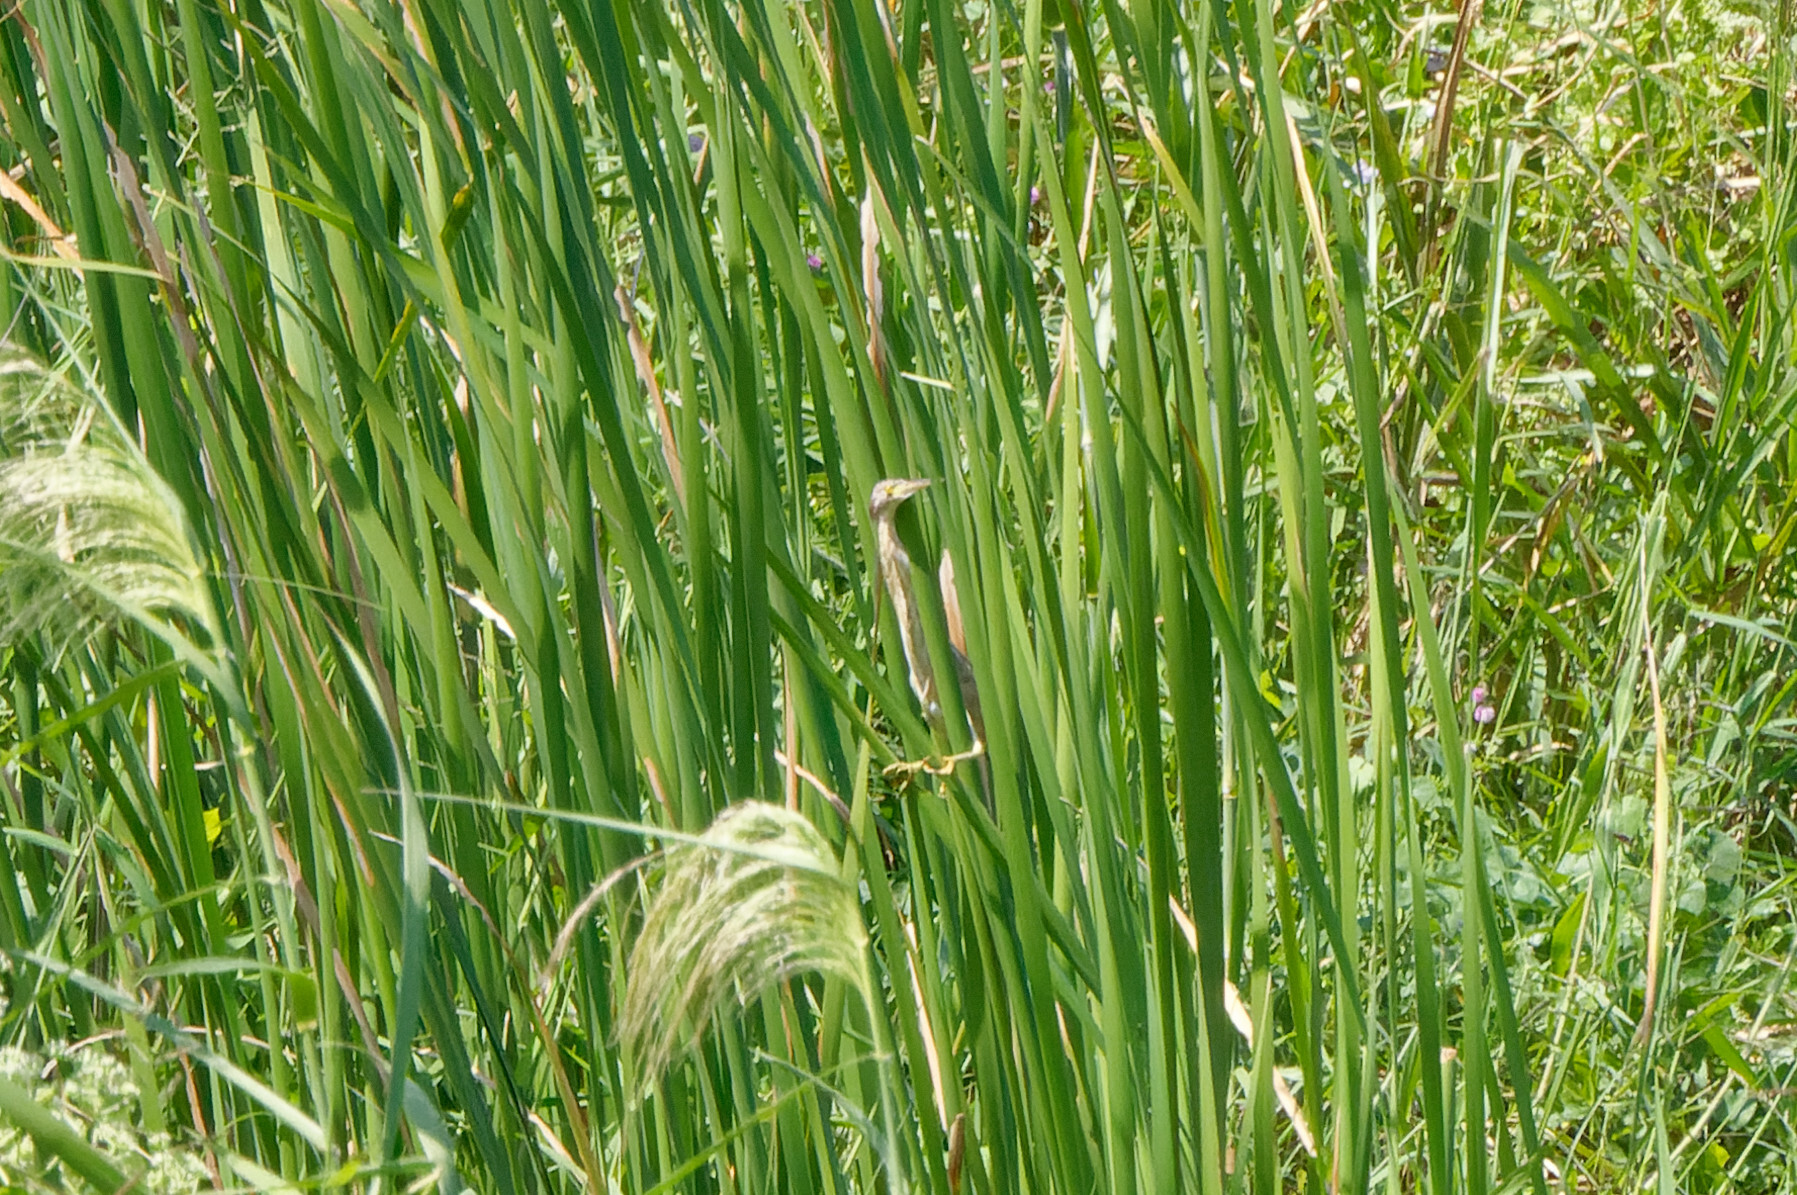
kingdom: Animalia
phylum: Chordata
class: Aves
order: Pelecaniformes
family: Ardeidae
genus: Ixobrychus
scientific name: Ixobrychus sinensis
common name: Yellow bittern
